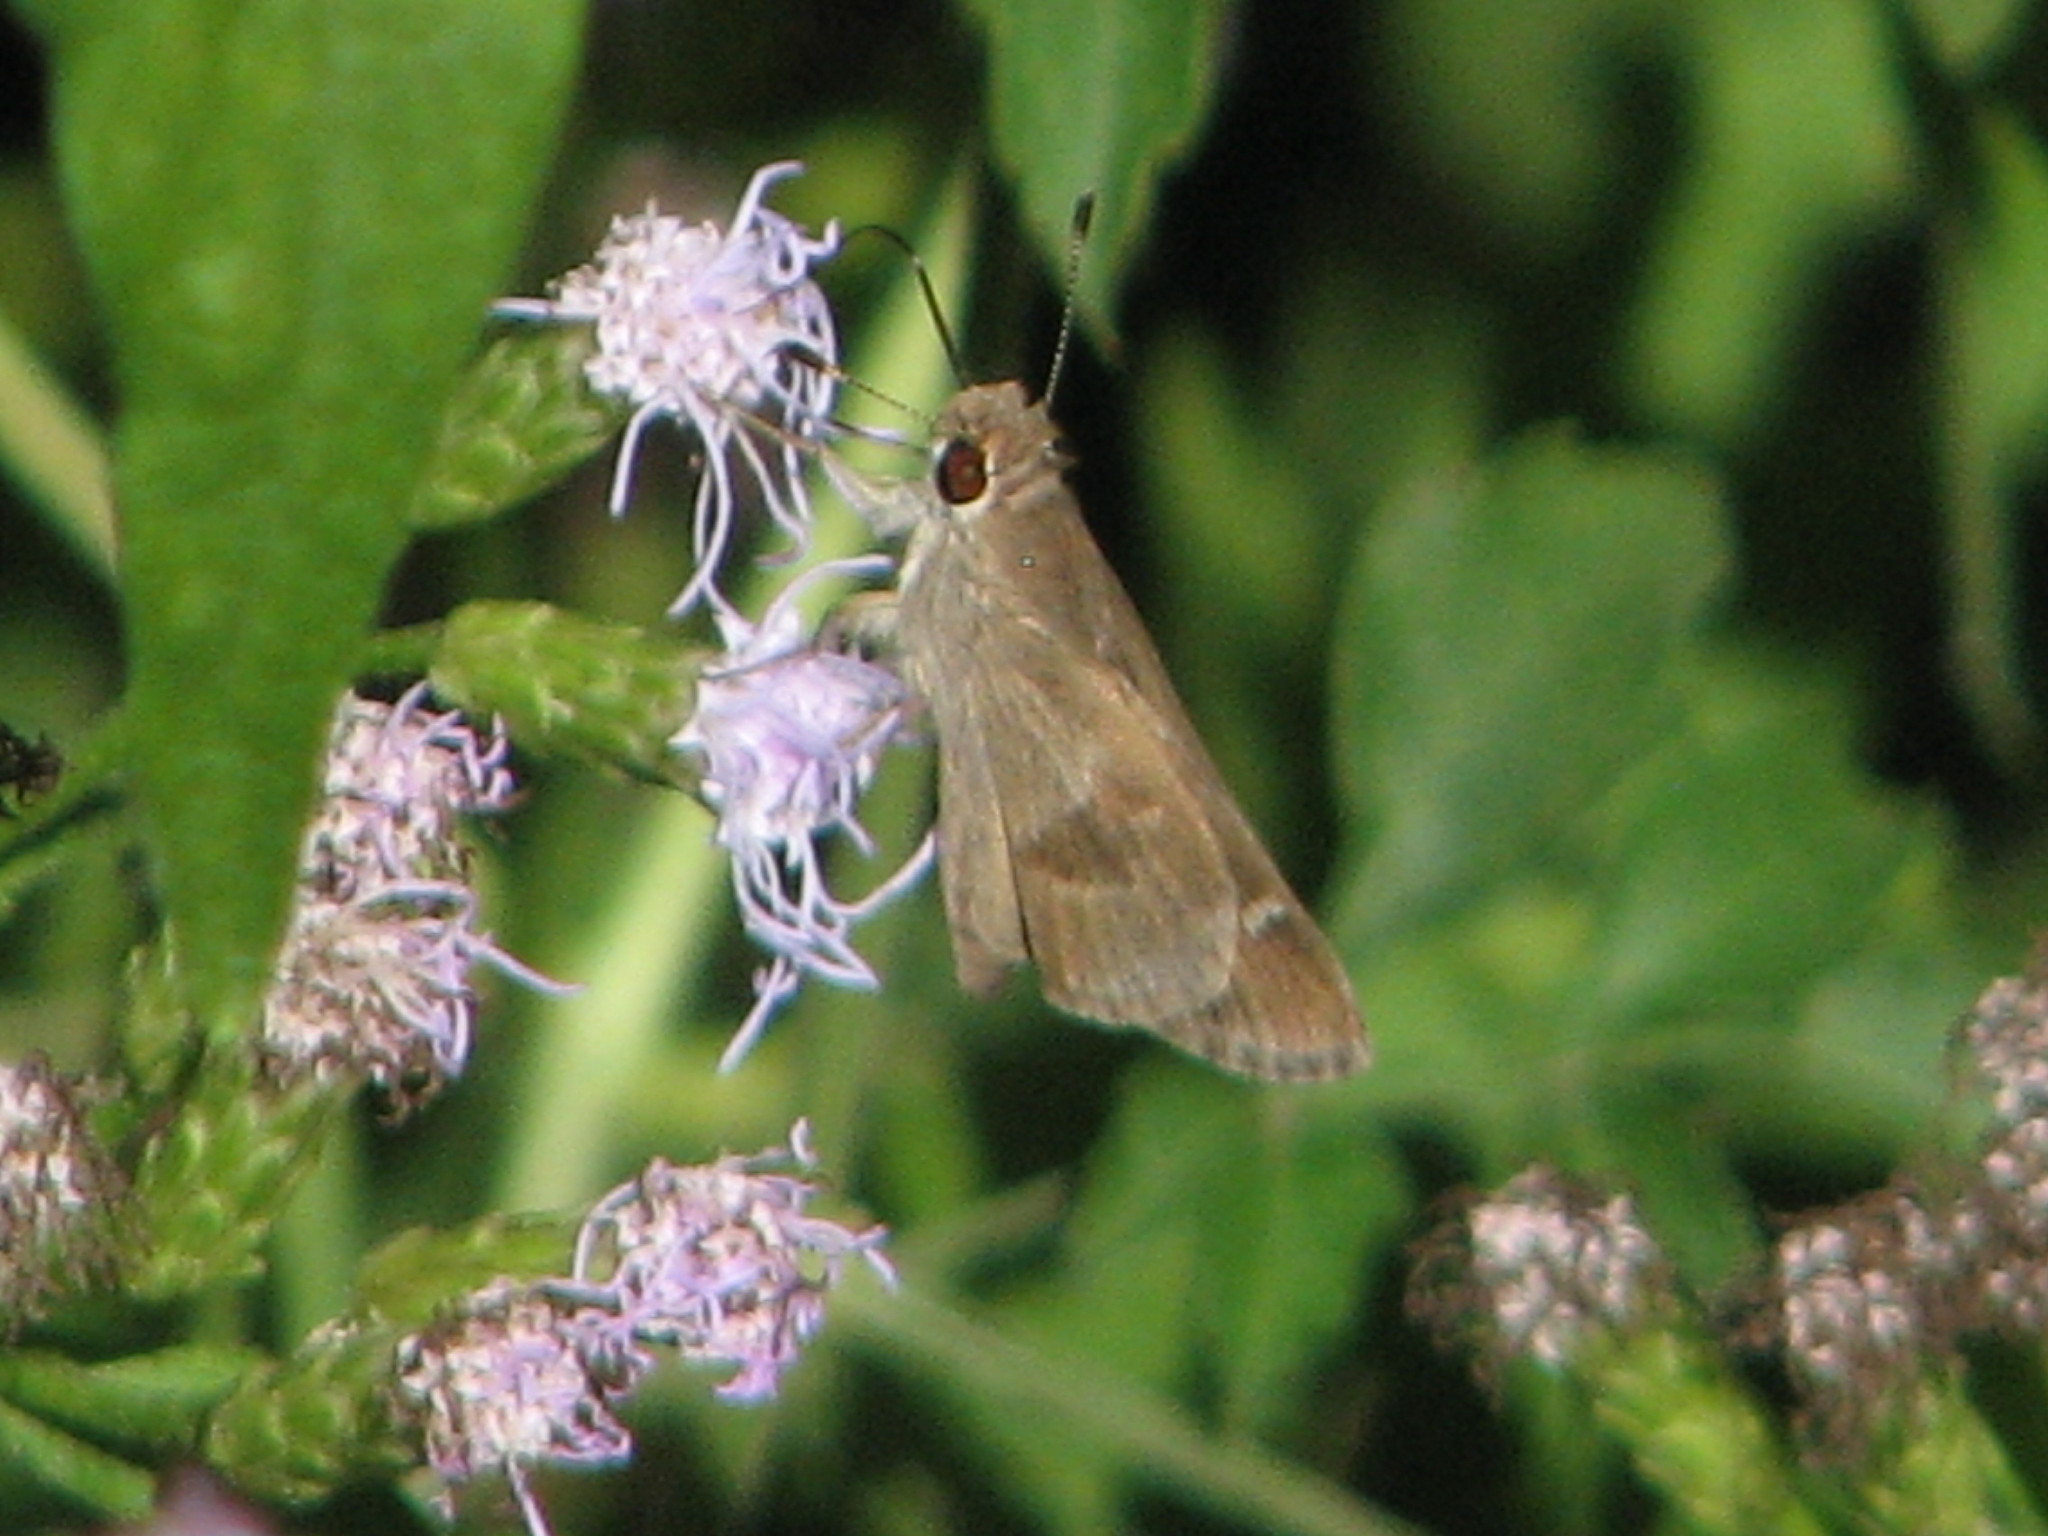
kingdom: Animalia
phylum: Arthropoda
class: Insecta
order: Lepidoptera
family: Hesperiidae
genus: Lerodea
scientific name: Lerodea arabus
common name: Violet-clouded skipper
